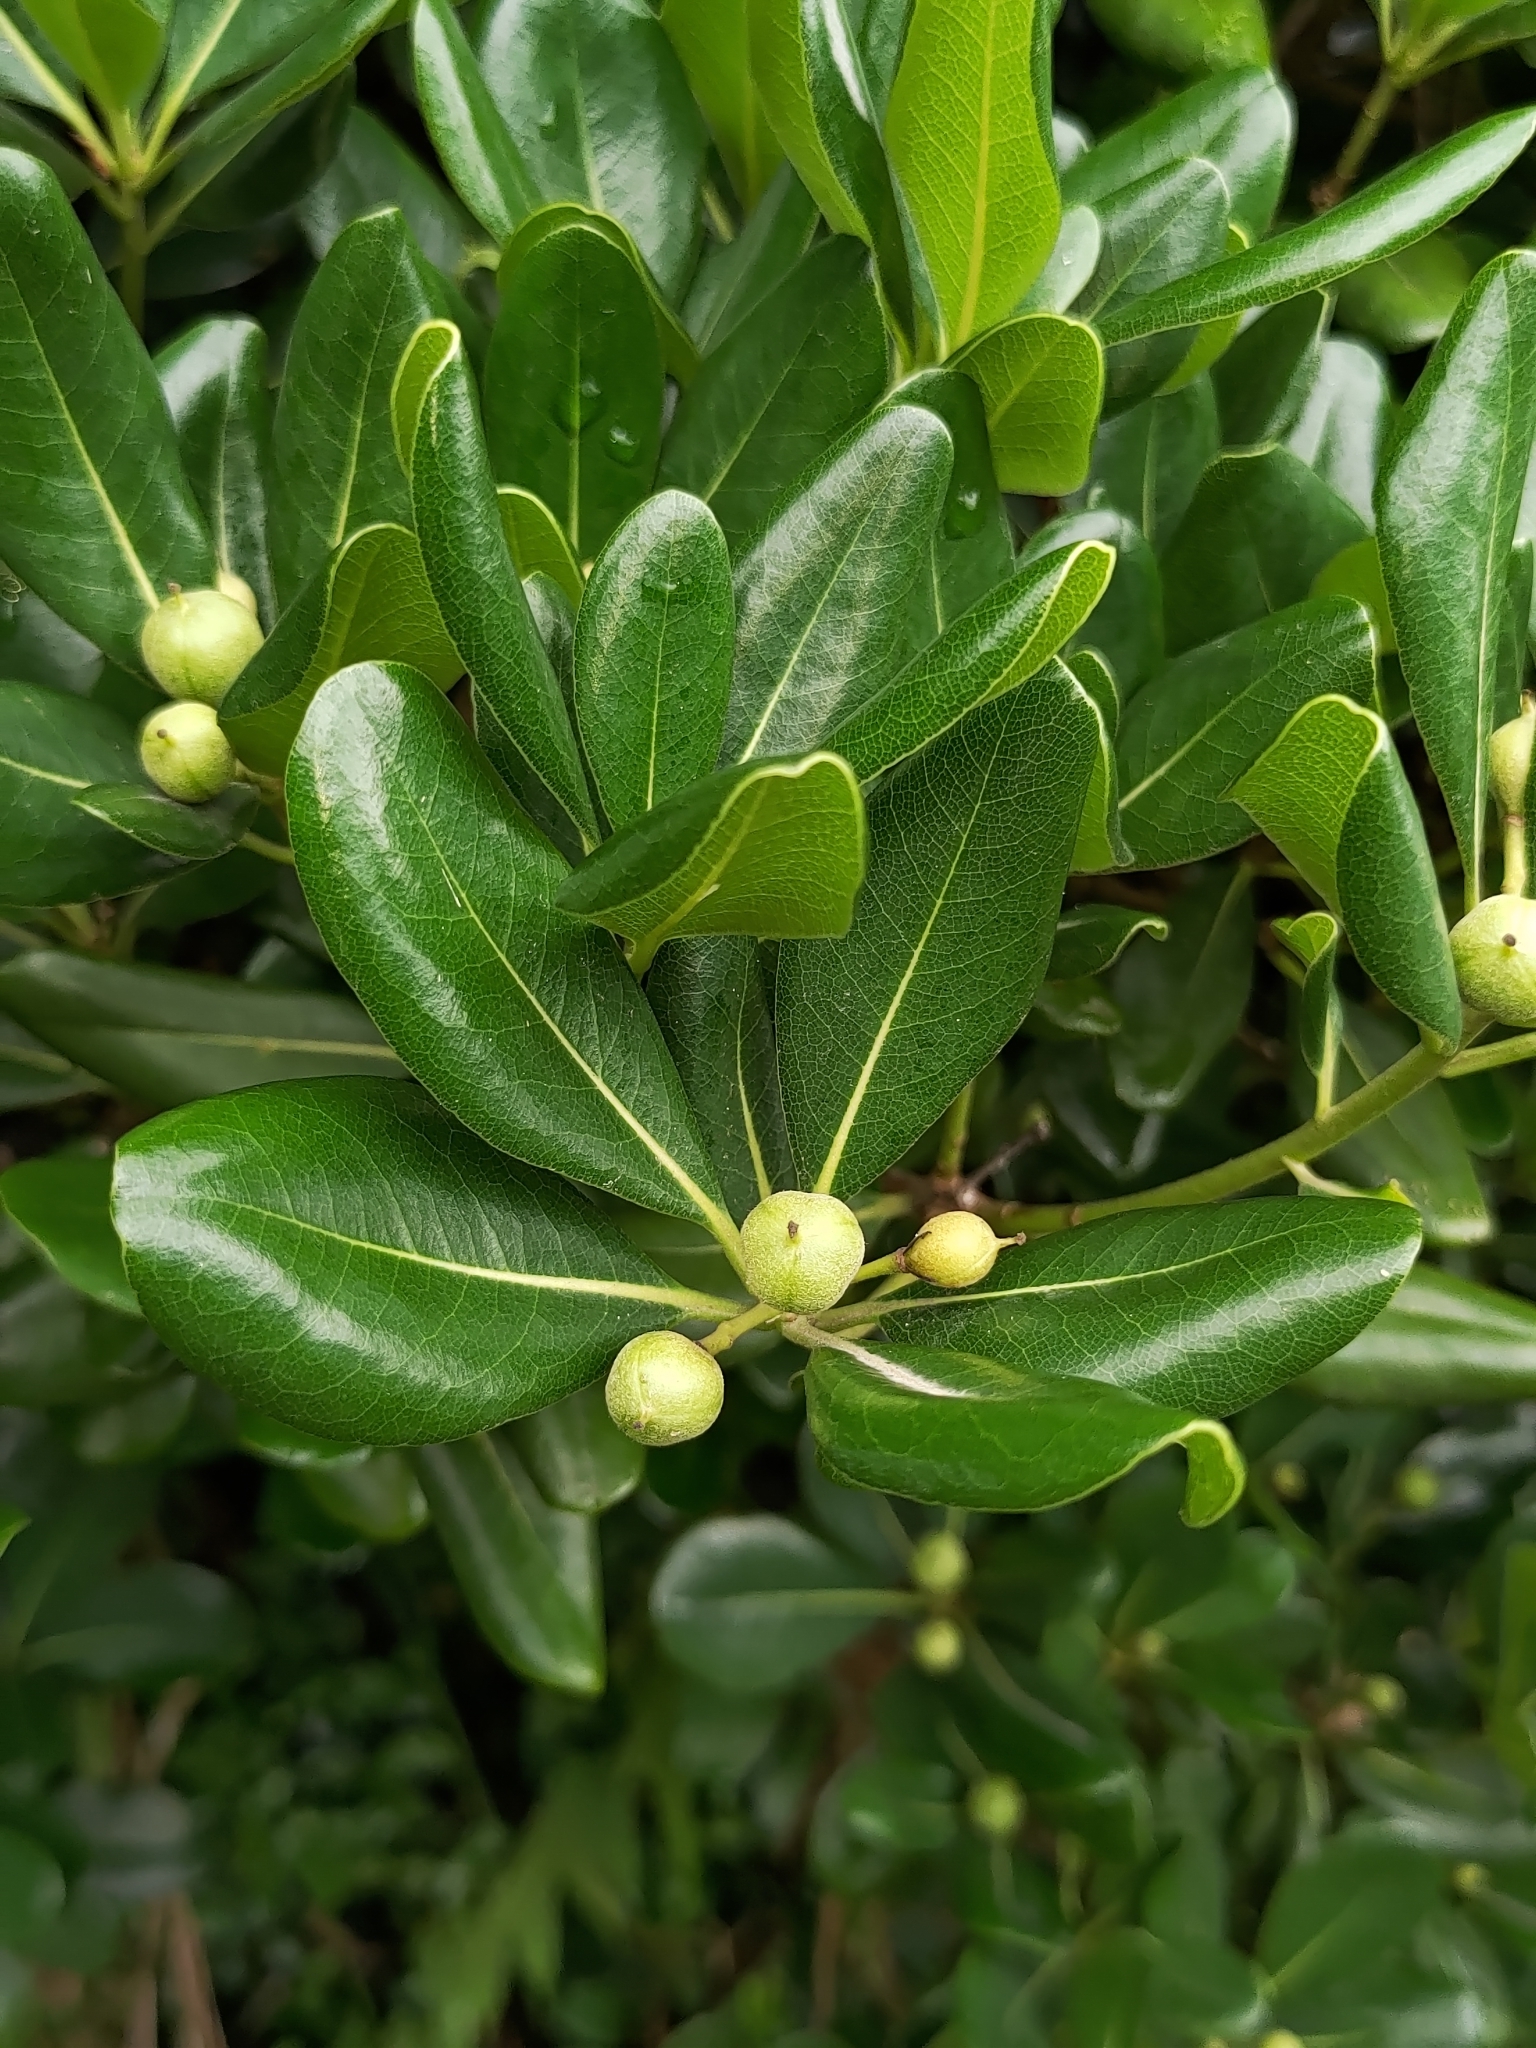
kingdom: Plantae
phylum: Tracheophyta
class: Magnoliopsida
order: Apiales
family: Pittosporaceae
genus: Pittosporum
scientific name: Pittosporum tobira
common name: Japanese cheesewood
